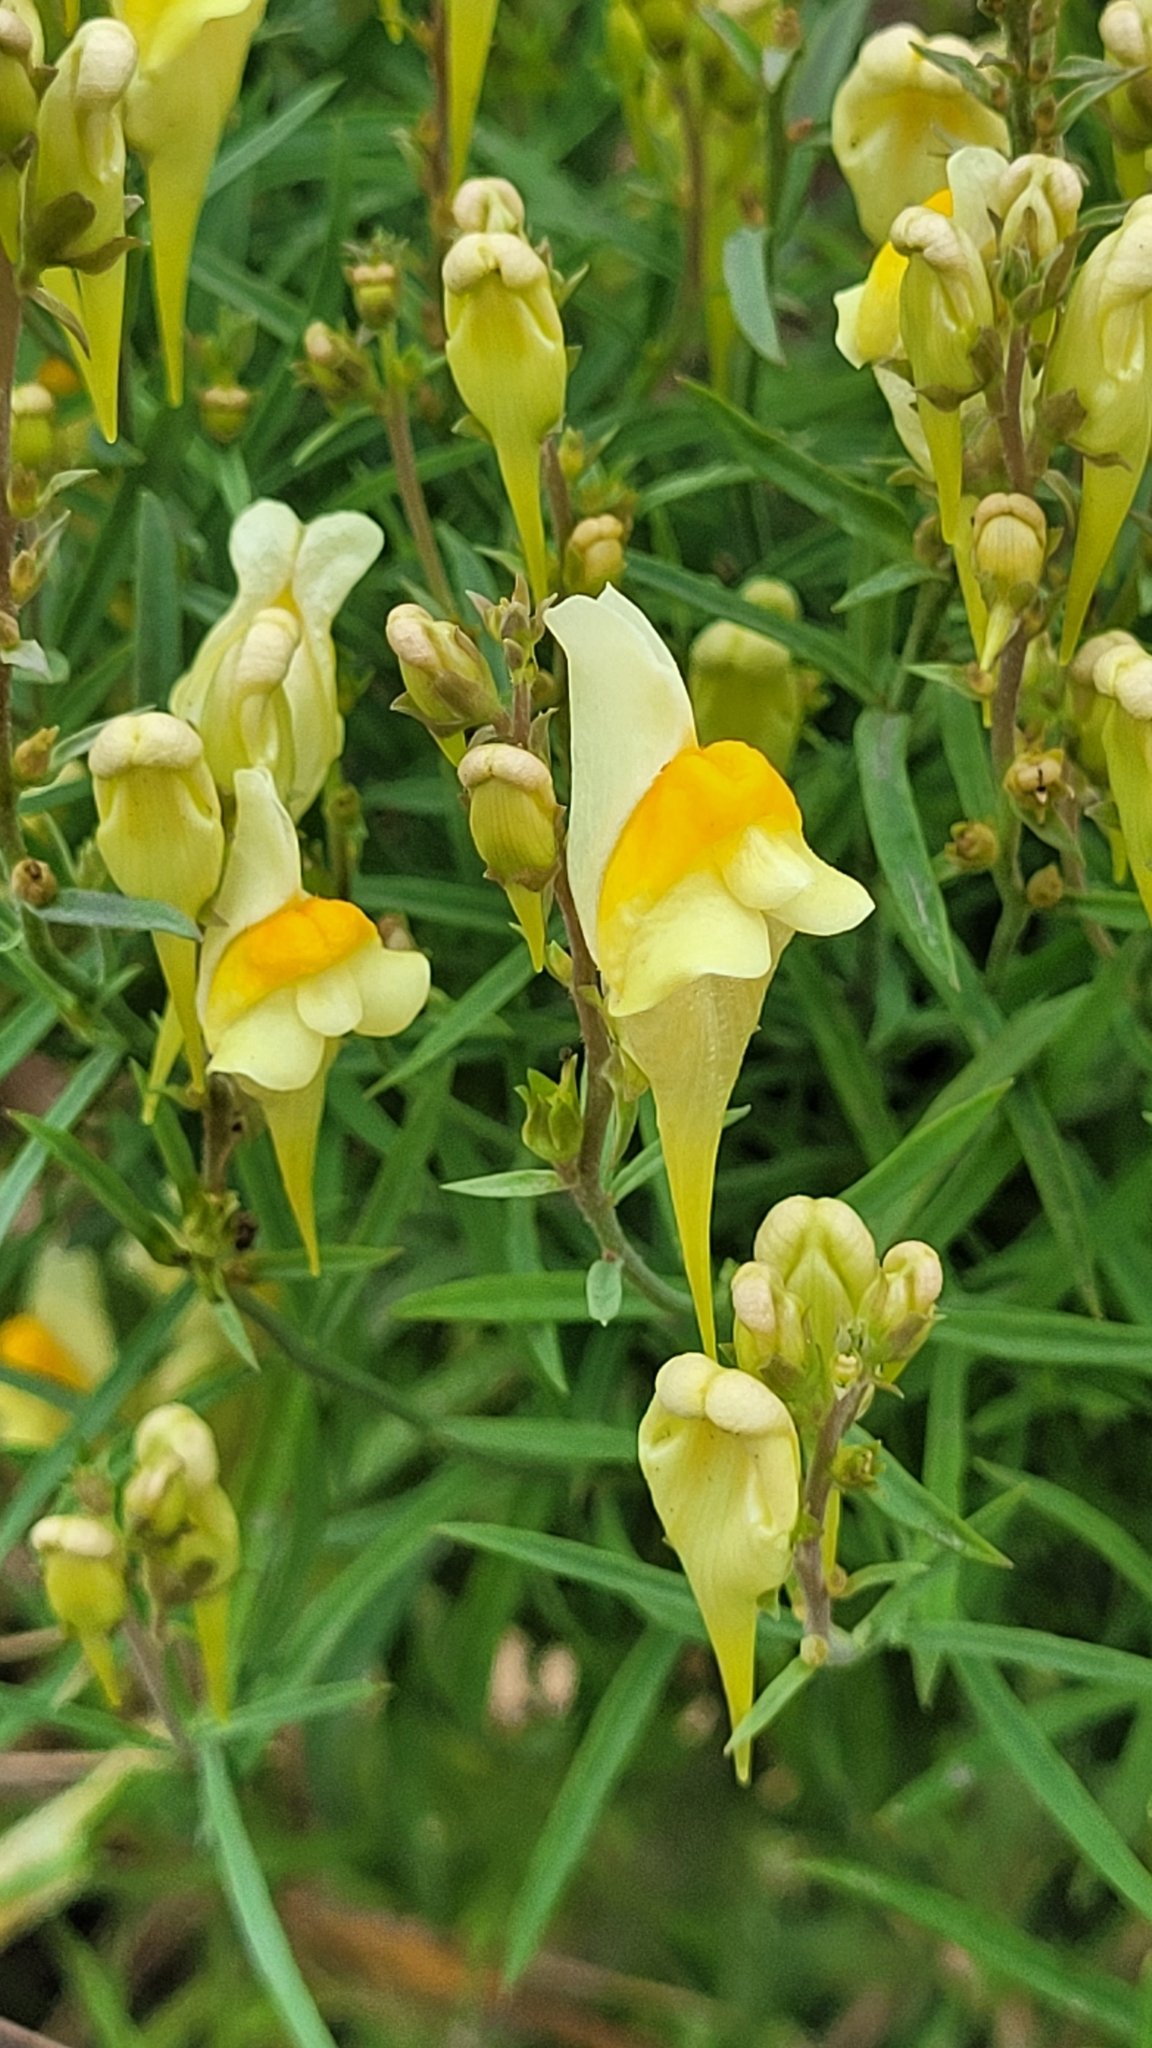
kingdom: Plantae
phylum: Tracheophyta
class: Magnoliopsida
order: Lamiales
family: Plantaginaceae
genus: Linaria
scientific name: Linaria vulgaris
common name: Butter and eggs
